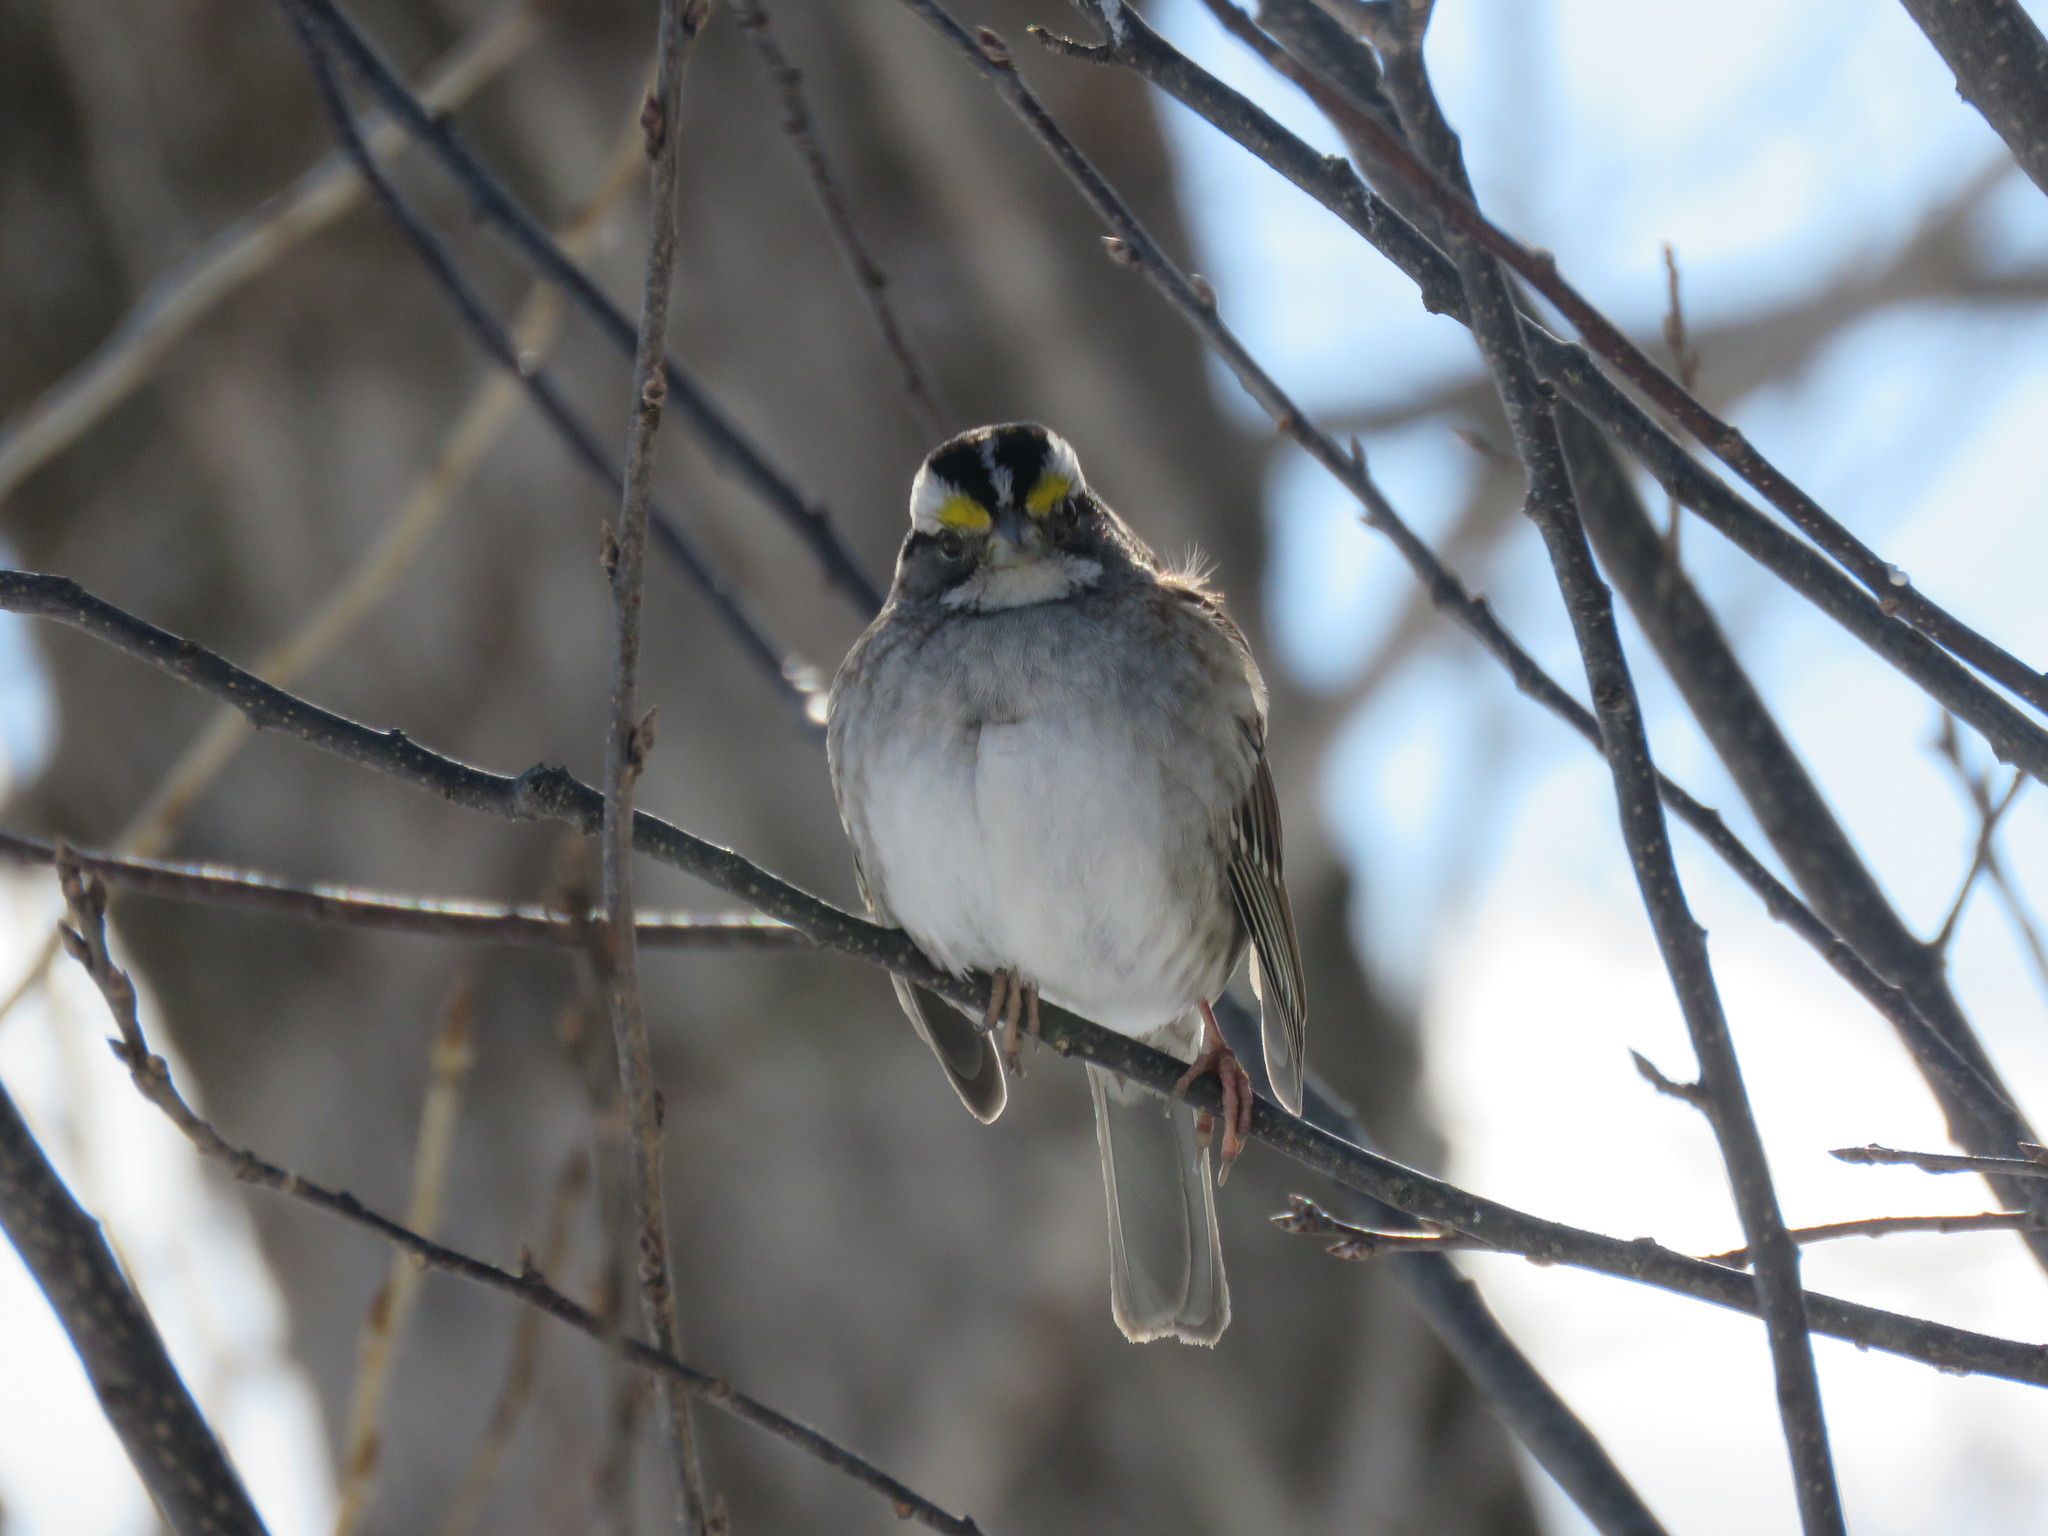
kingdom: Animalia
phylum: Chordata
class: Aves
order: Passeriformes
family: Passerellidae
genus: Zonotrichia
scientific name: Zonotrichia albicollis
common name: White-throated sparrow
